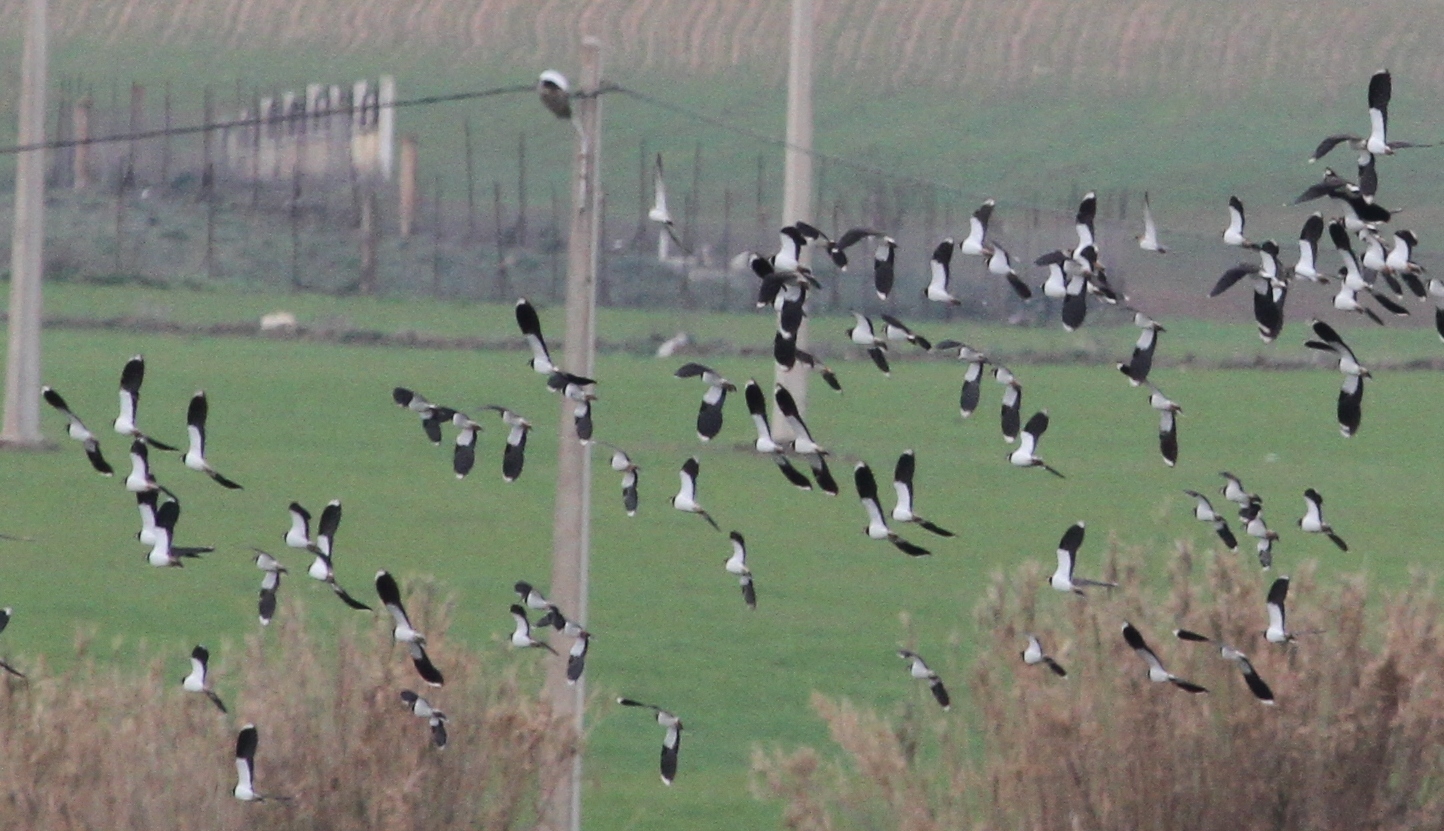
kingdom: Animalia
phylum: Chordata
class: Aves
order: Charadriiformes
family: Charadriidae
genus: Vanellus
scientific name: Vanellus vanellus
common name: Northern lapwing
